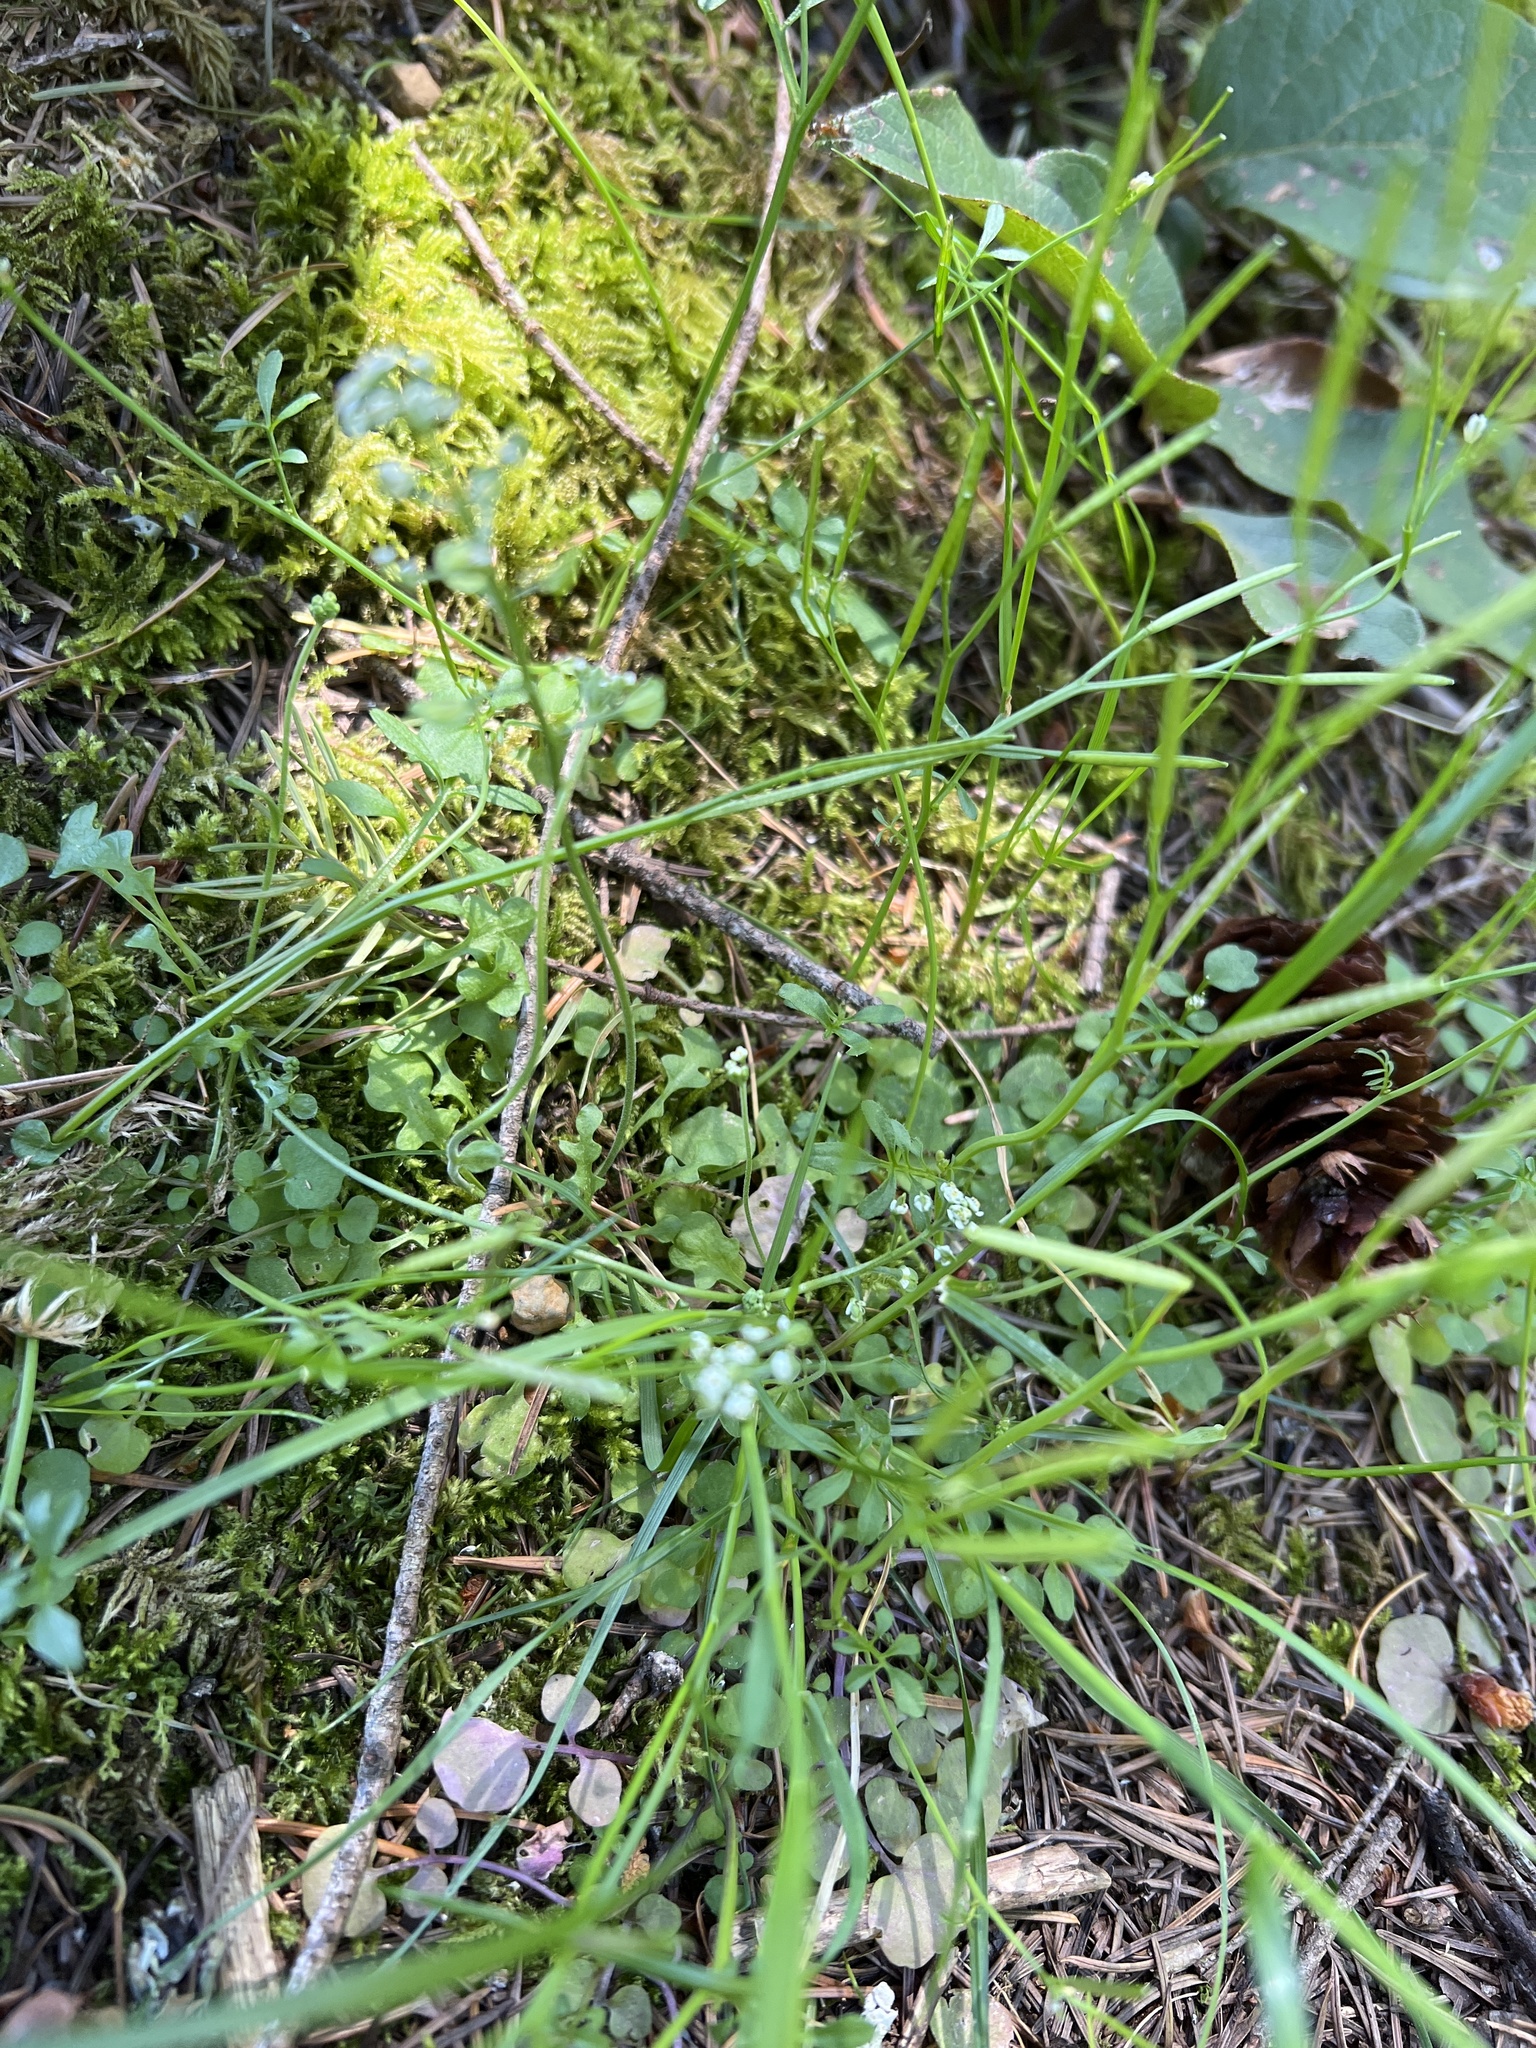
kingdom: Plantae
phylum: Tracheophyta
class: Magnoliopsida
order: Brassicales
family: Brassicaceae
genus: Teesdalia
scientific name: Teesdalia nudicaulis
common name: Shepherd's cress
